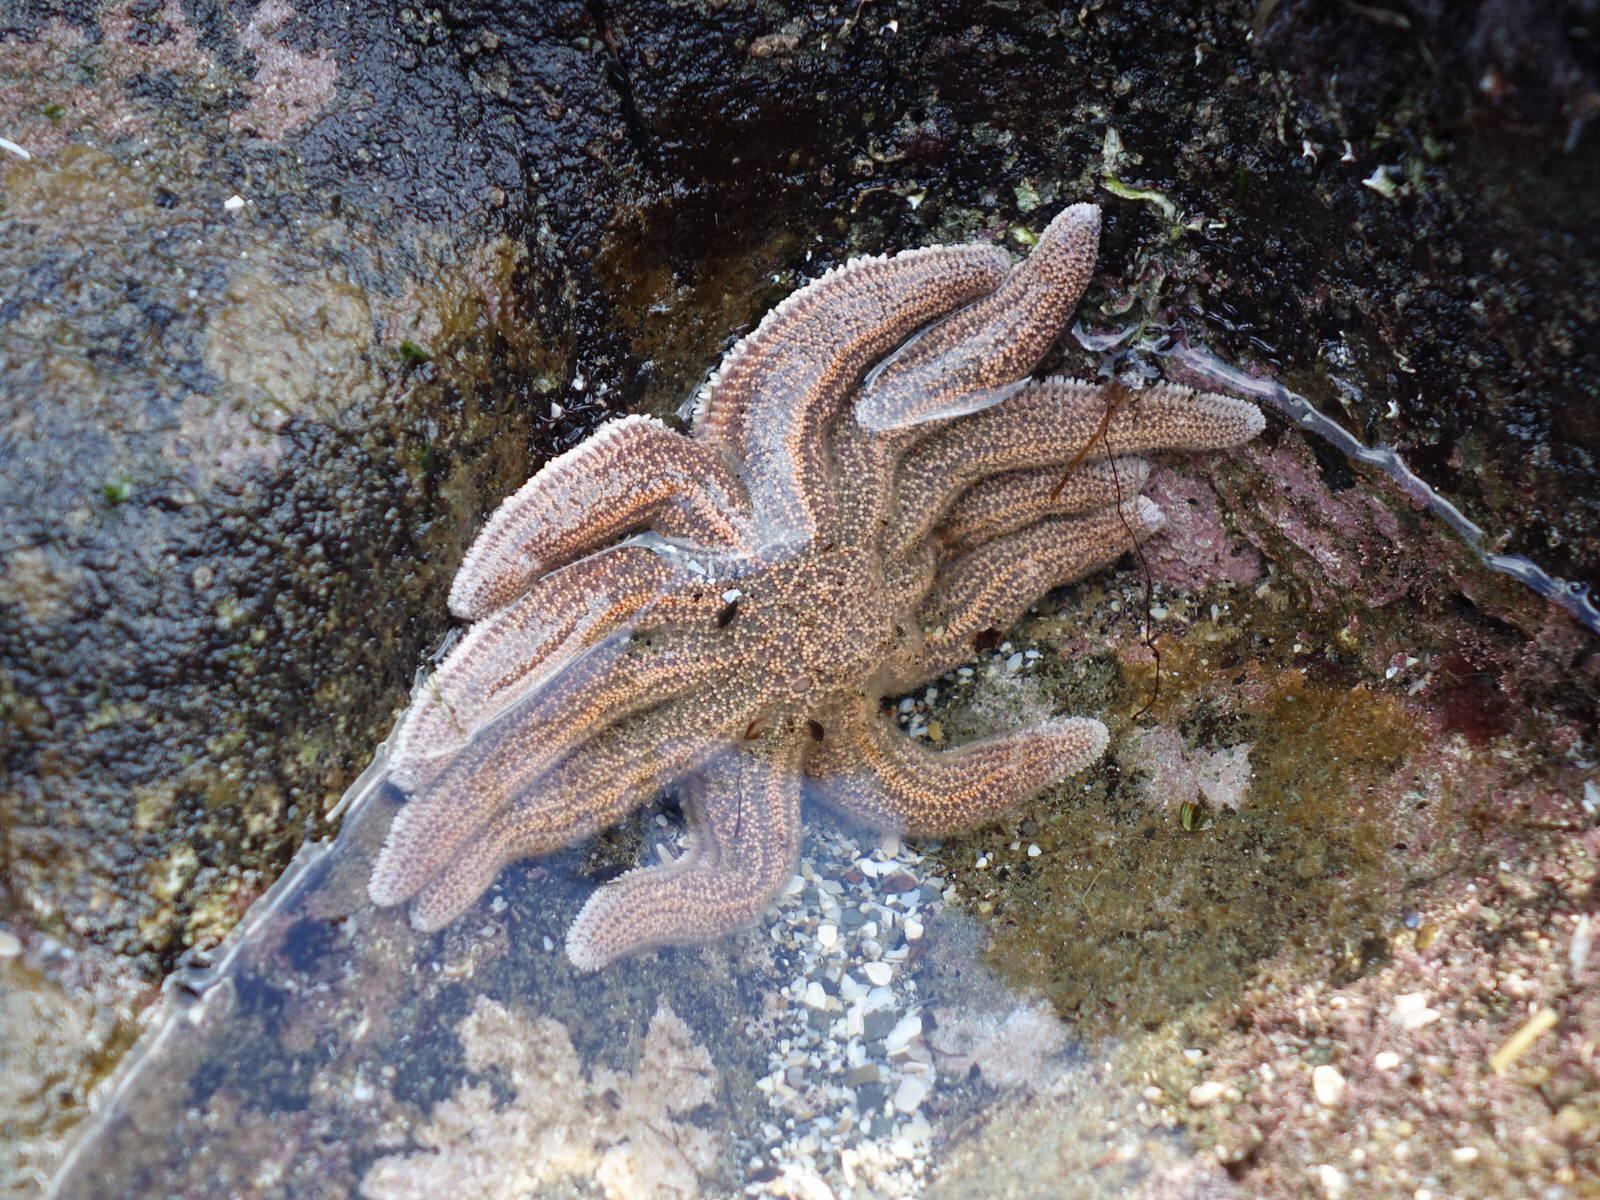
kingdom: Animalia
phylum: Echinodermata
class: Asteroidea
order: Forcipulatida
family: Stichasteridae
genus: Stichaster
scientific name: Stichaster australis
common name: Reef starfish
